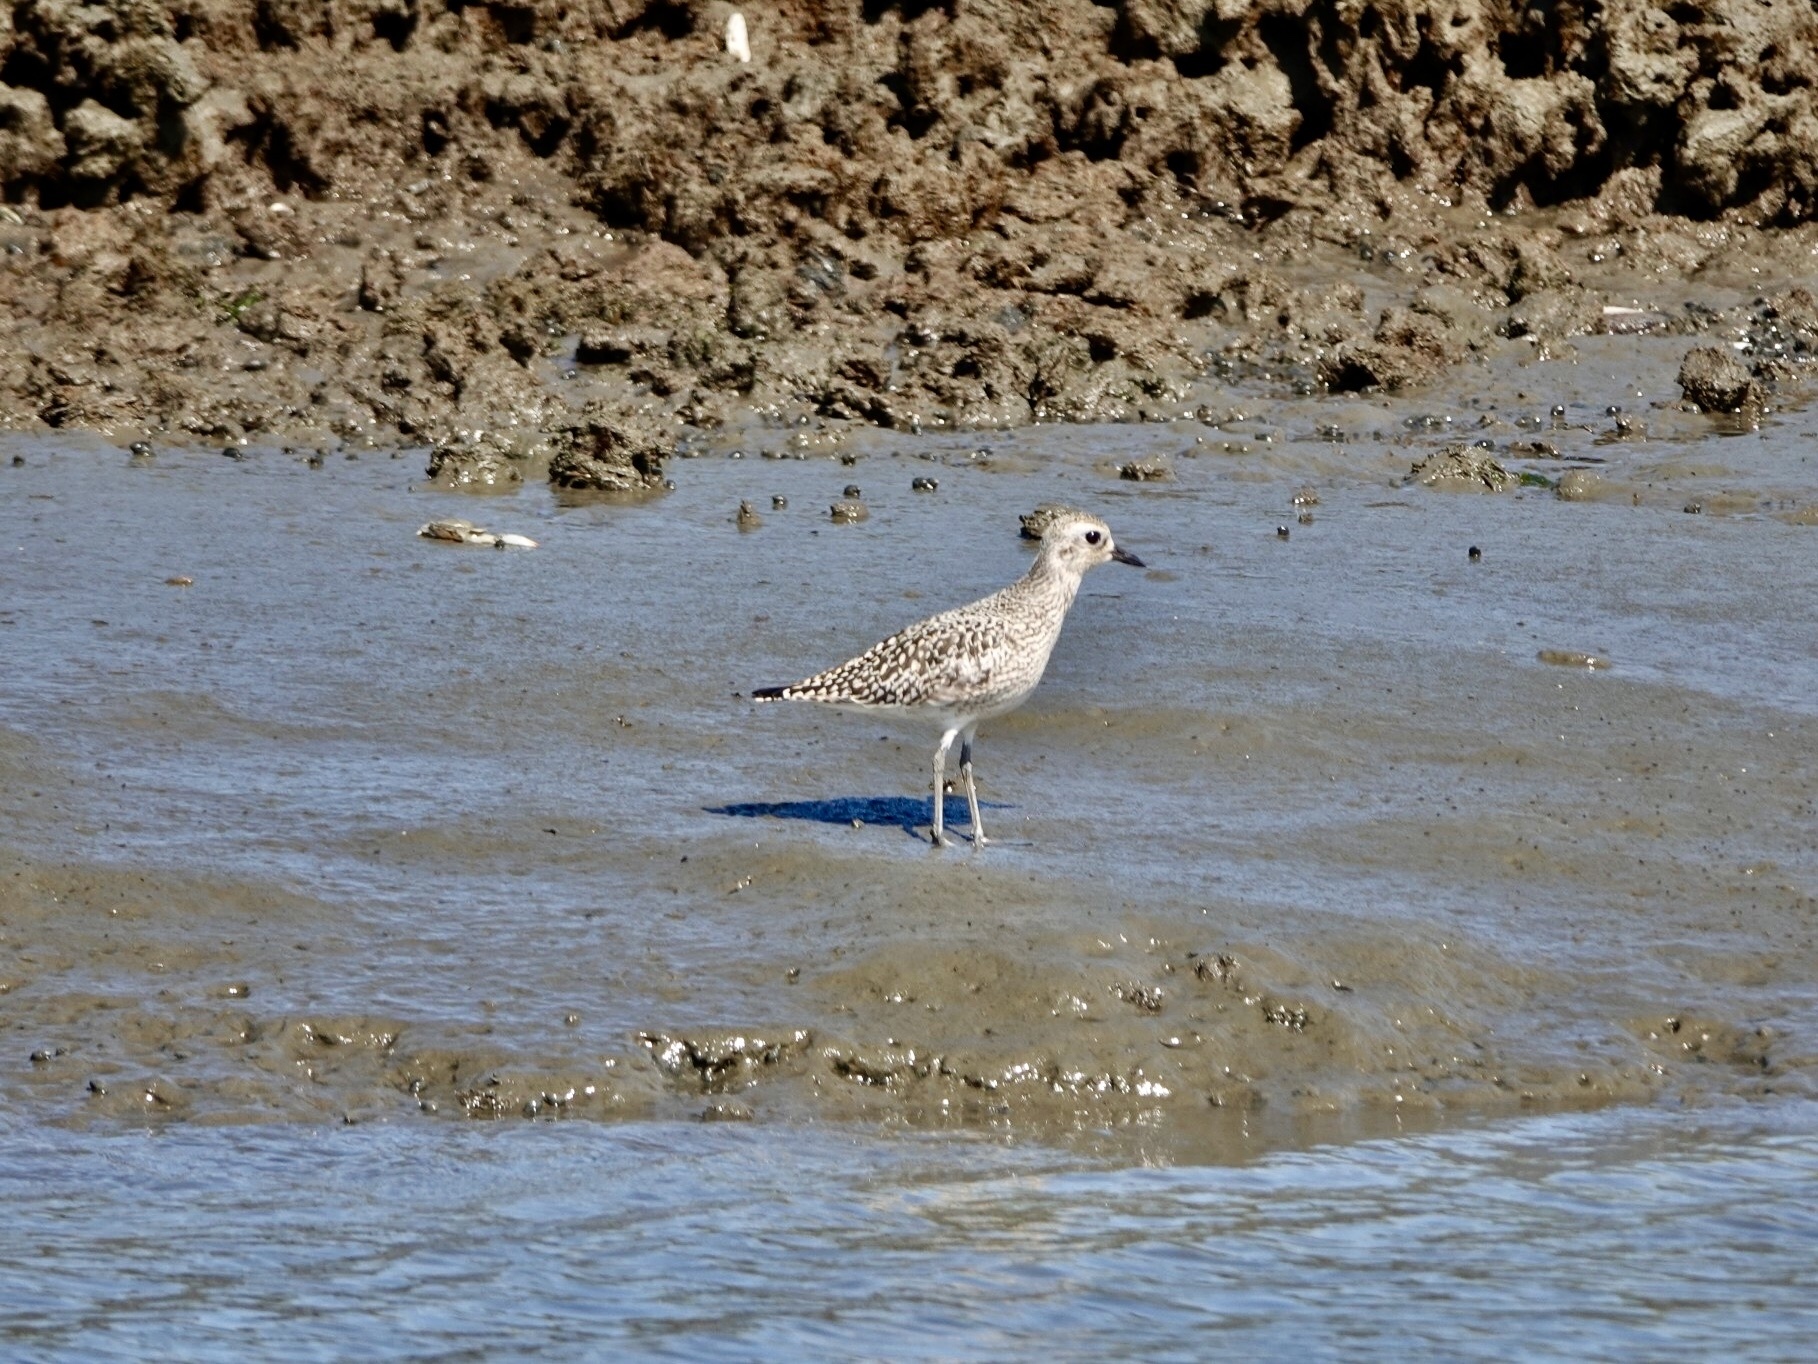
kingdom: Animalia
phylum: Chordata
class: Aves
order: Charadriiformes
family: Charadriidae
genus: Pluvialis
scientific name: Pluvialis squatarola
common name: Grey plover
